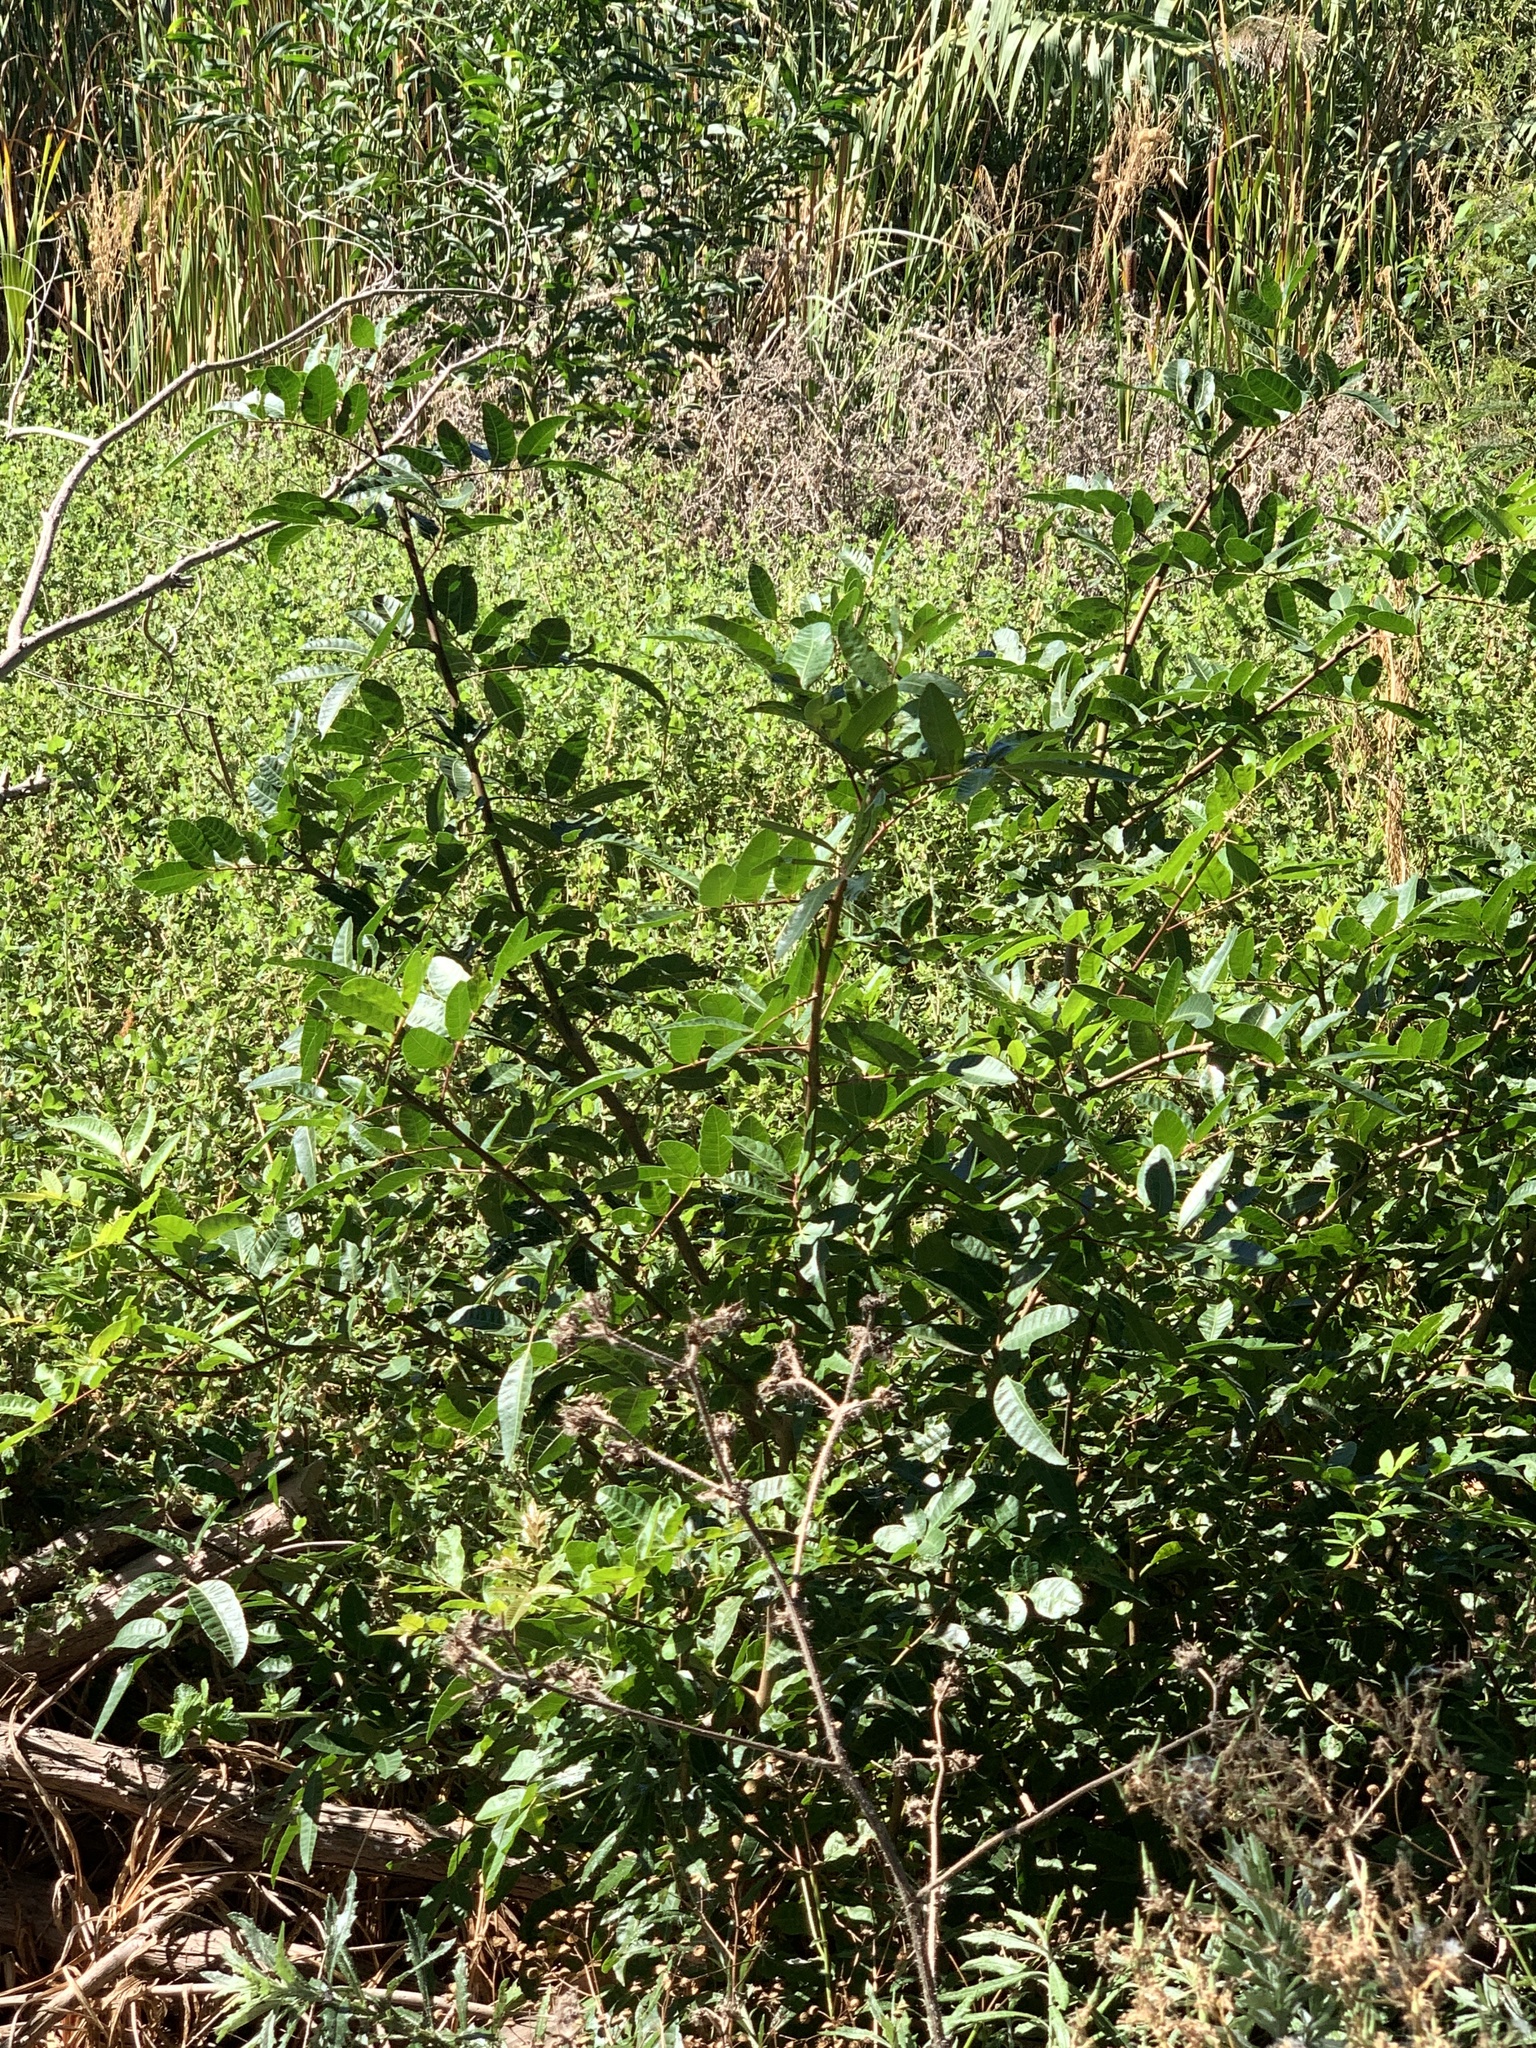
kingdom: Plantae
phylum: Tracheophyta
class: Magnoliopsida
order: Sapindales
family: Anacardiaceae
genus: Schinus
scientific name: Schinus terebinthifolia
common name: Brazilian peppertree
